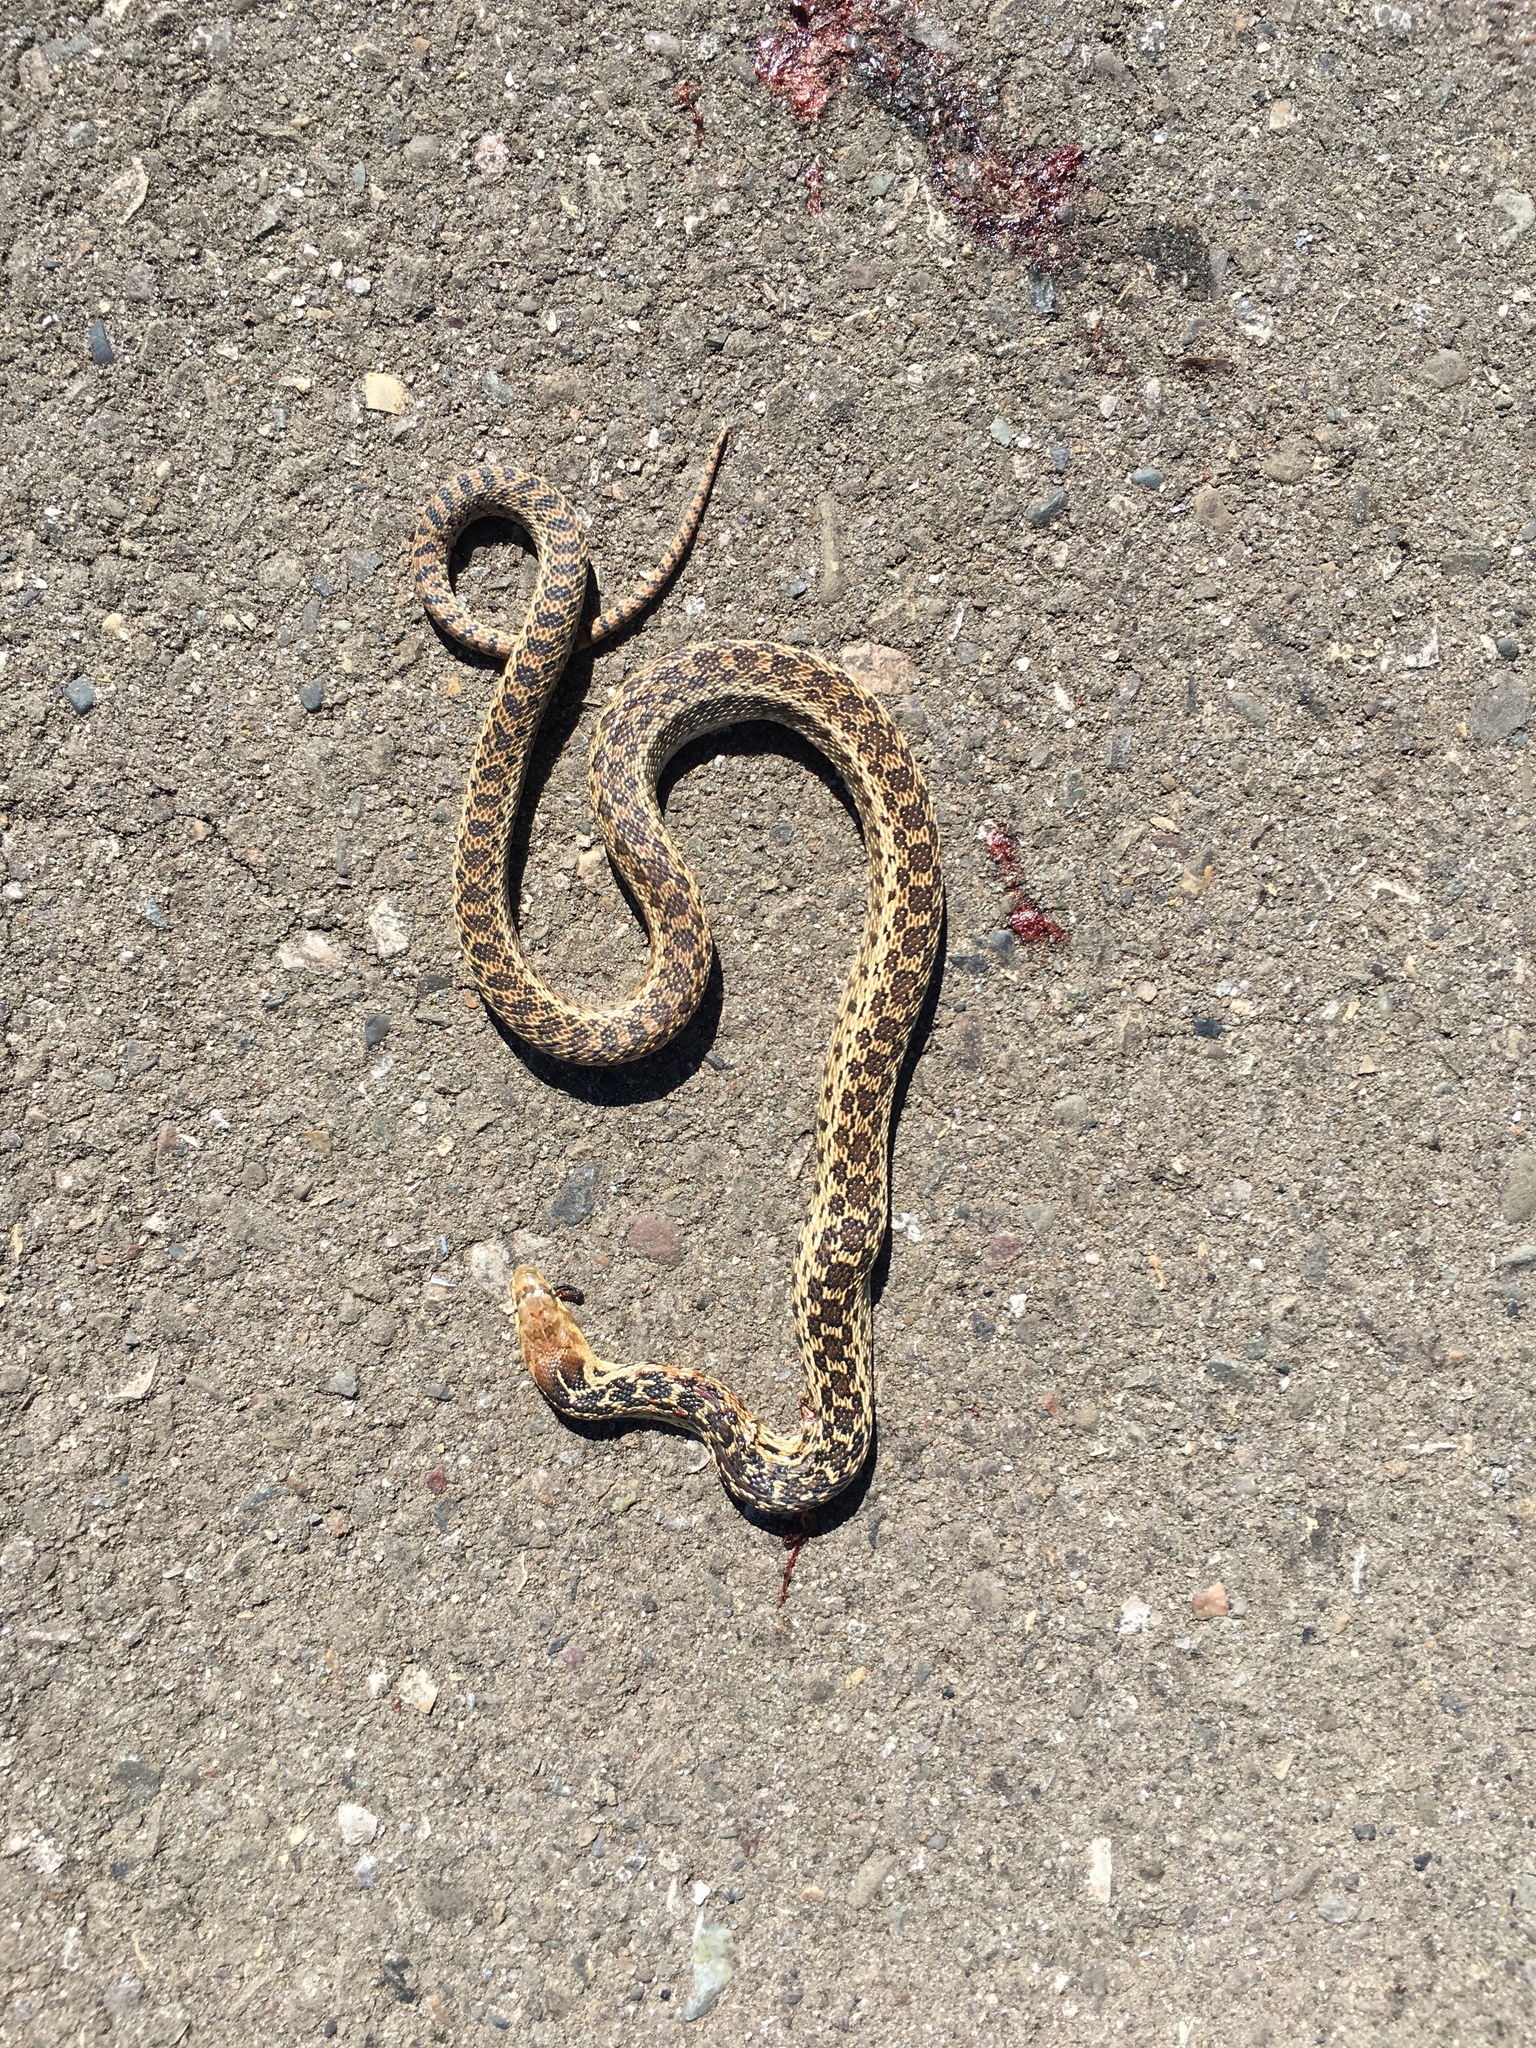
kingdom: Animalia
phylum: Chordata
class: Squamata
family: Colubridae
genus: Pituophis
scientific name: Pituophis catenifer
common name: Gopher snake
